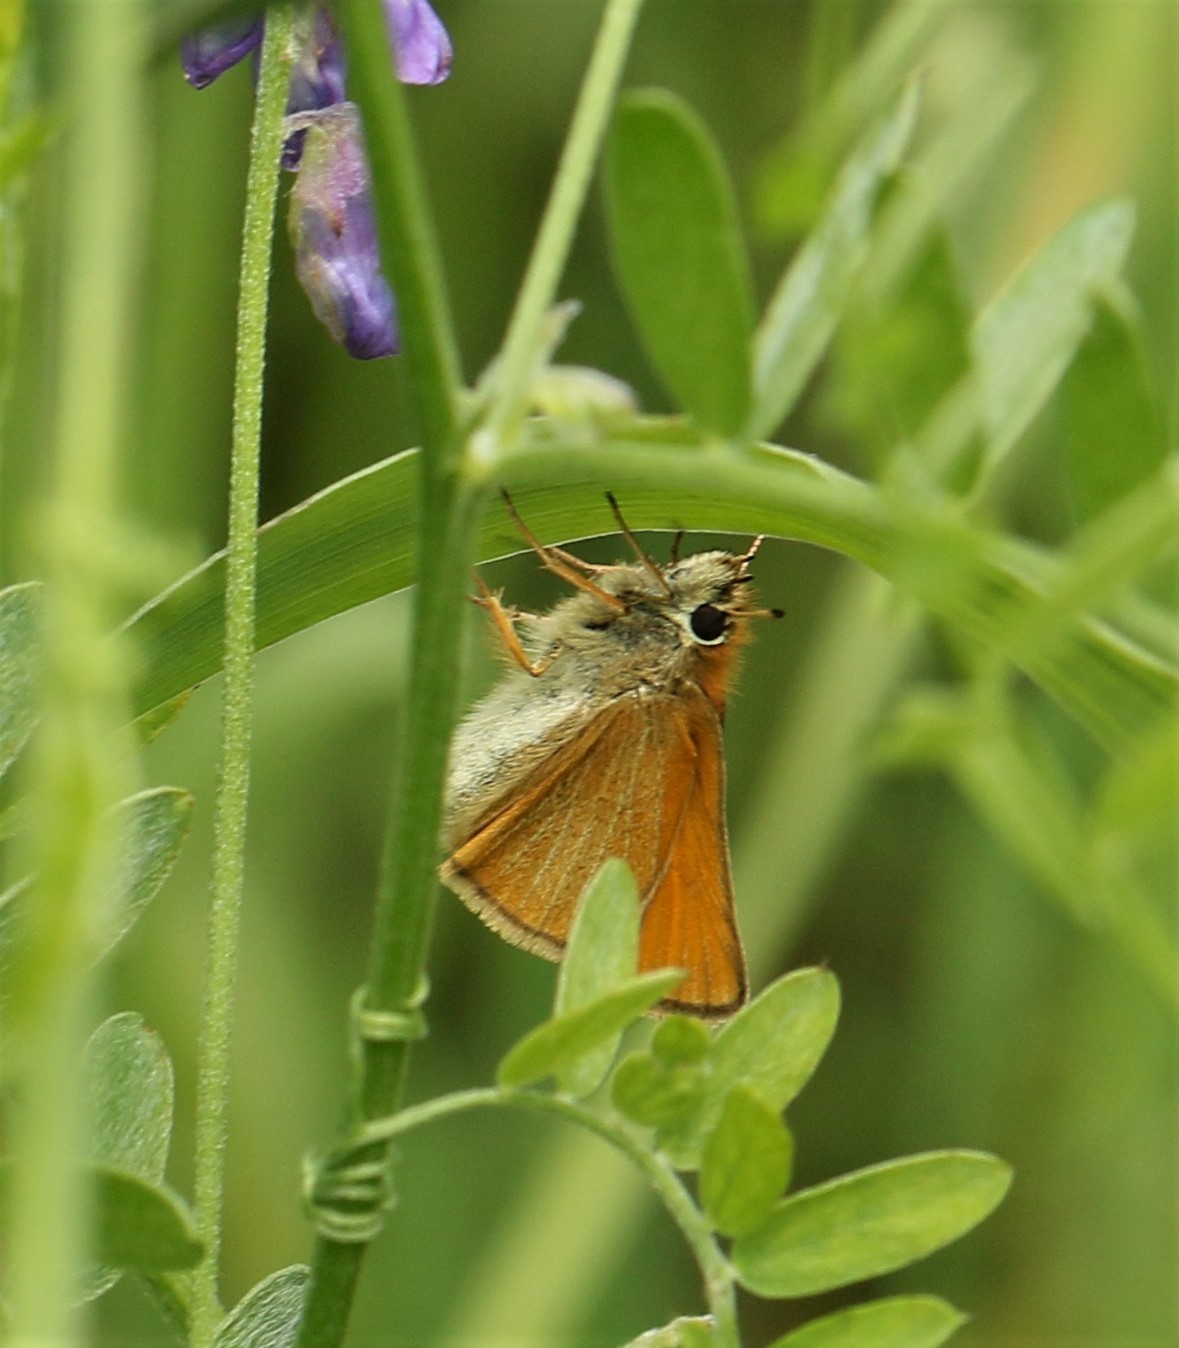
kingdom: Animalia
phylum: Arthropoda
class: Insecta
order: Lepidoptera
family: Hesperiidae
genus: Thymelicus
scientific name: Thymelicus lineola
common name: Essex skipper
